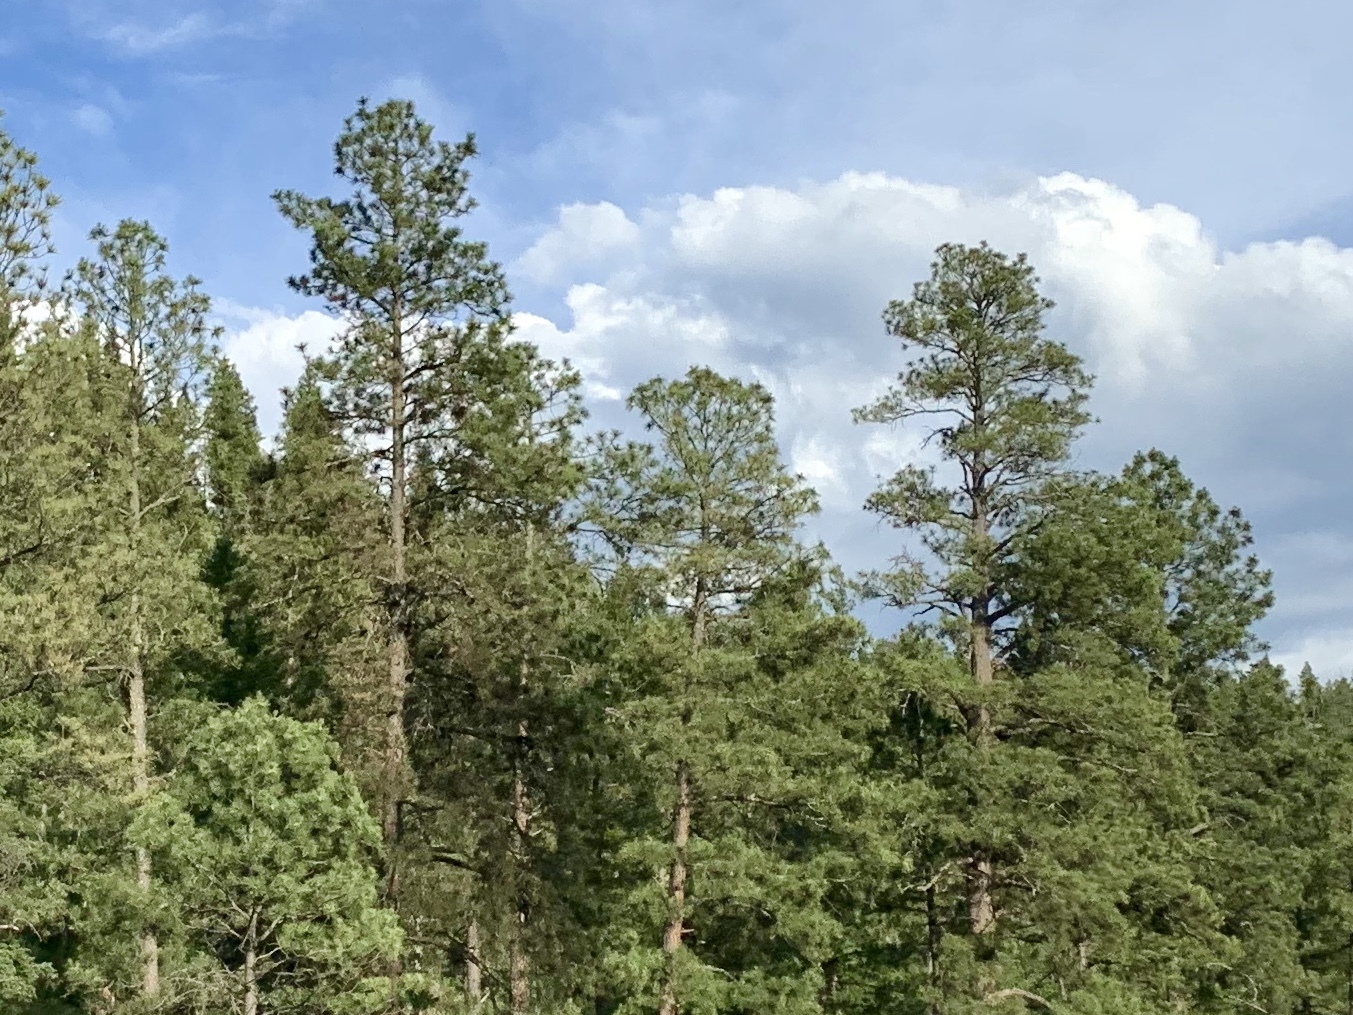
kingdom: Plantae
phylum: Tracheophyta
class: Pinopsida
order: Pinales
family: Pinaceae
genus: Pinus
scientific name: Pinus ponderosa
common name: Western yellow-pine
